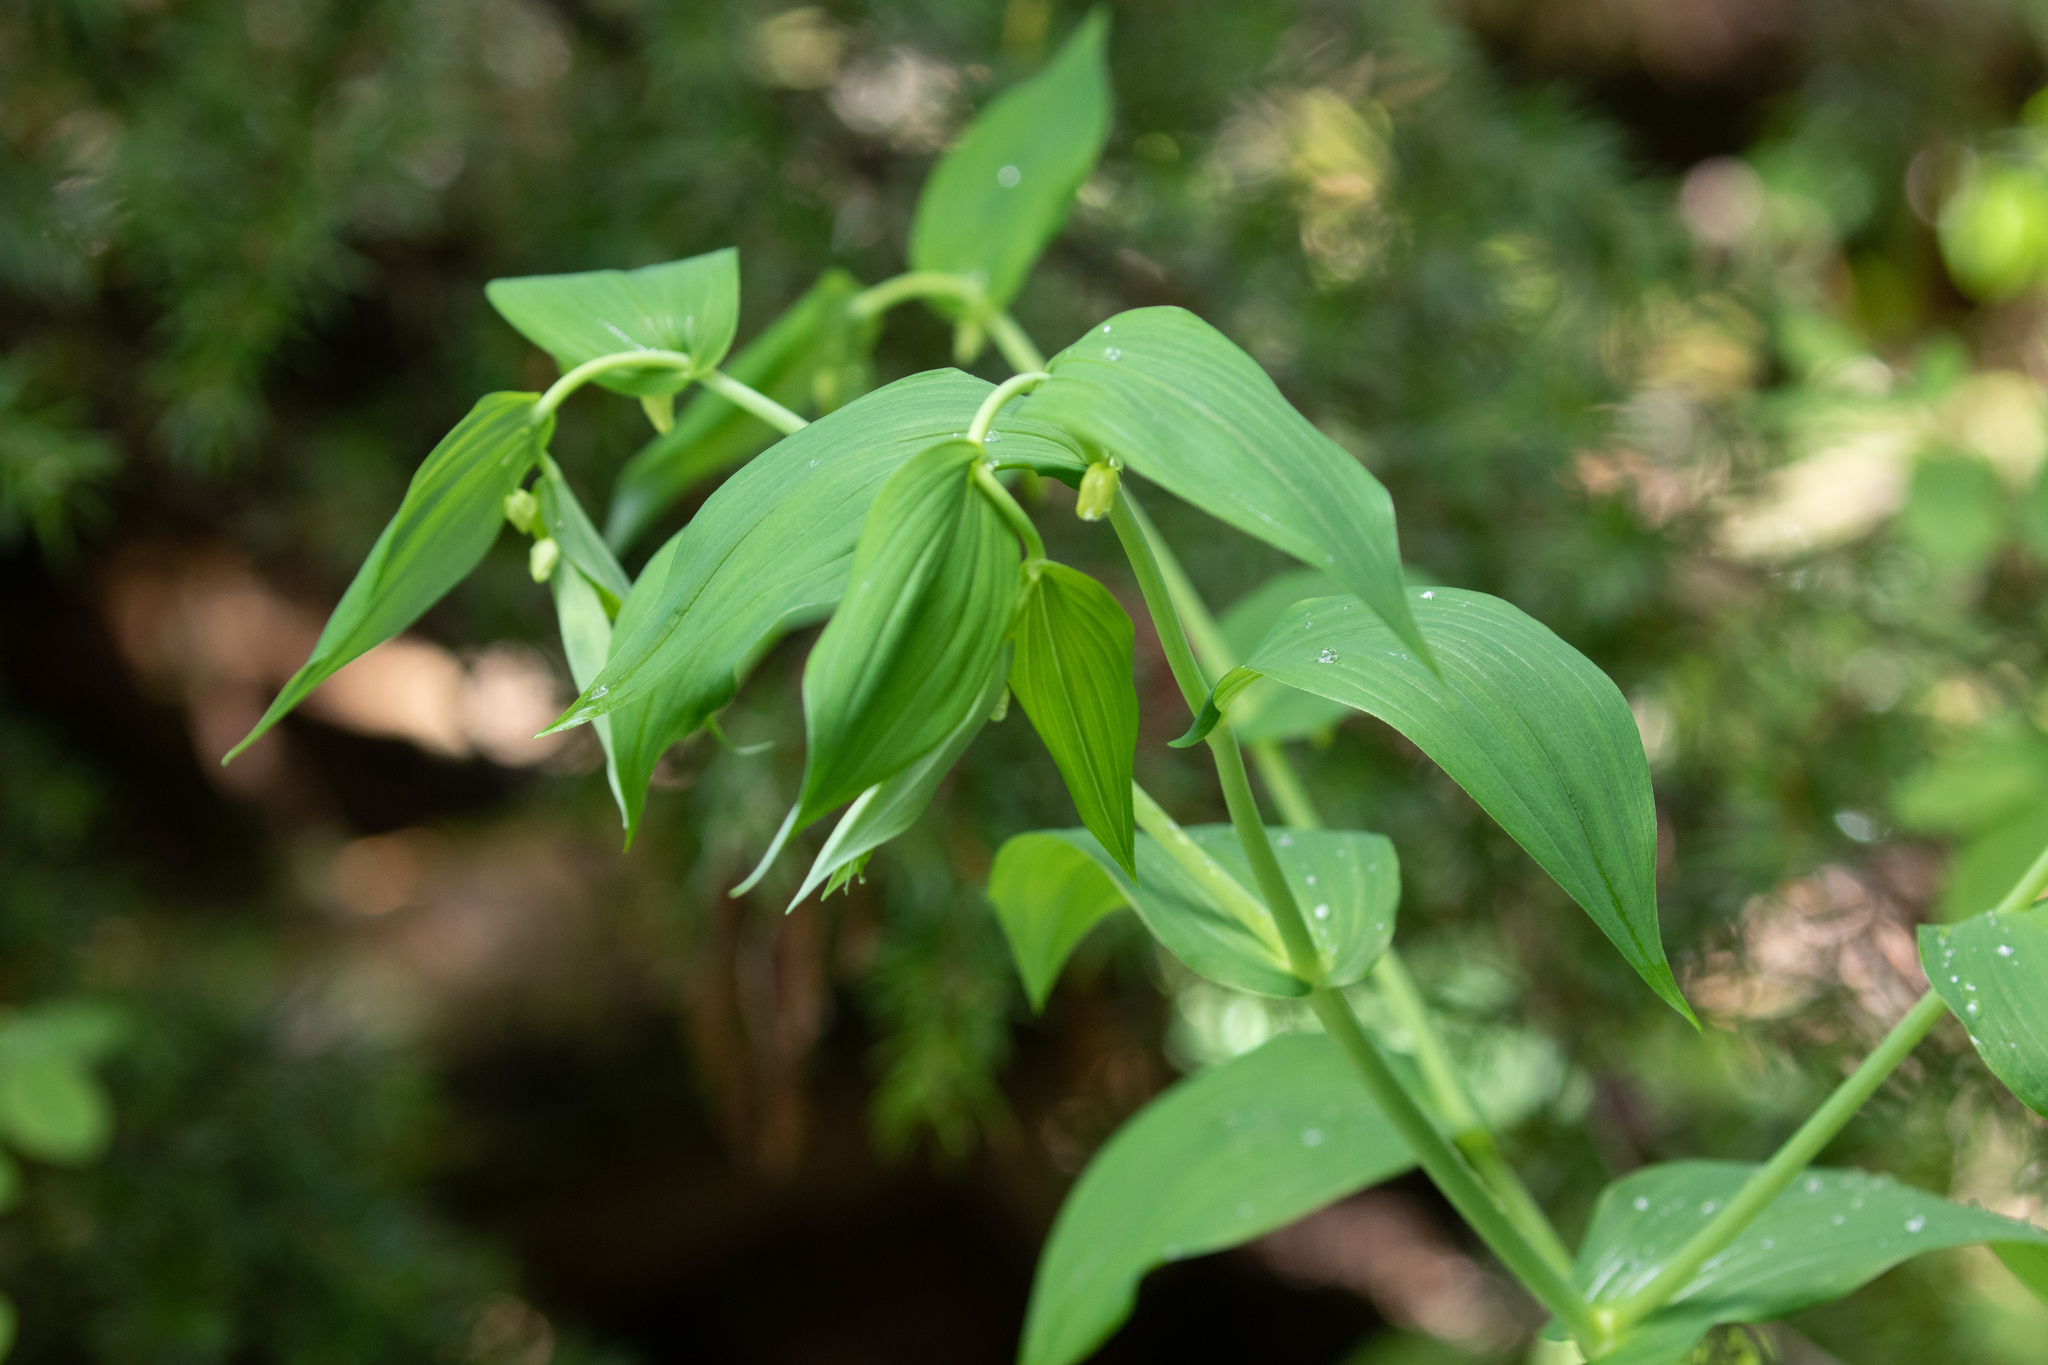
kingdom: Plantae
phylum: Tracheophyta
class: Liliopsida
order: Liliales
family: Liliaceae
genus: Streptopus
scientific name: Streptopus amplexifolius
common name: Clasp twisted stalk
